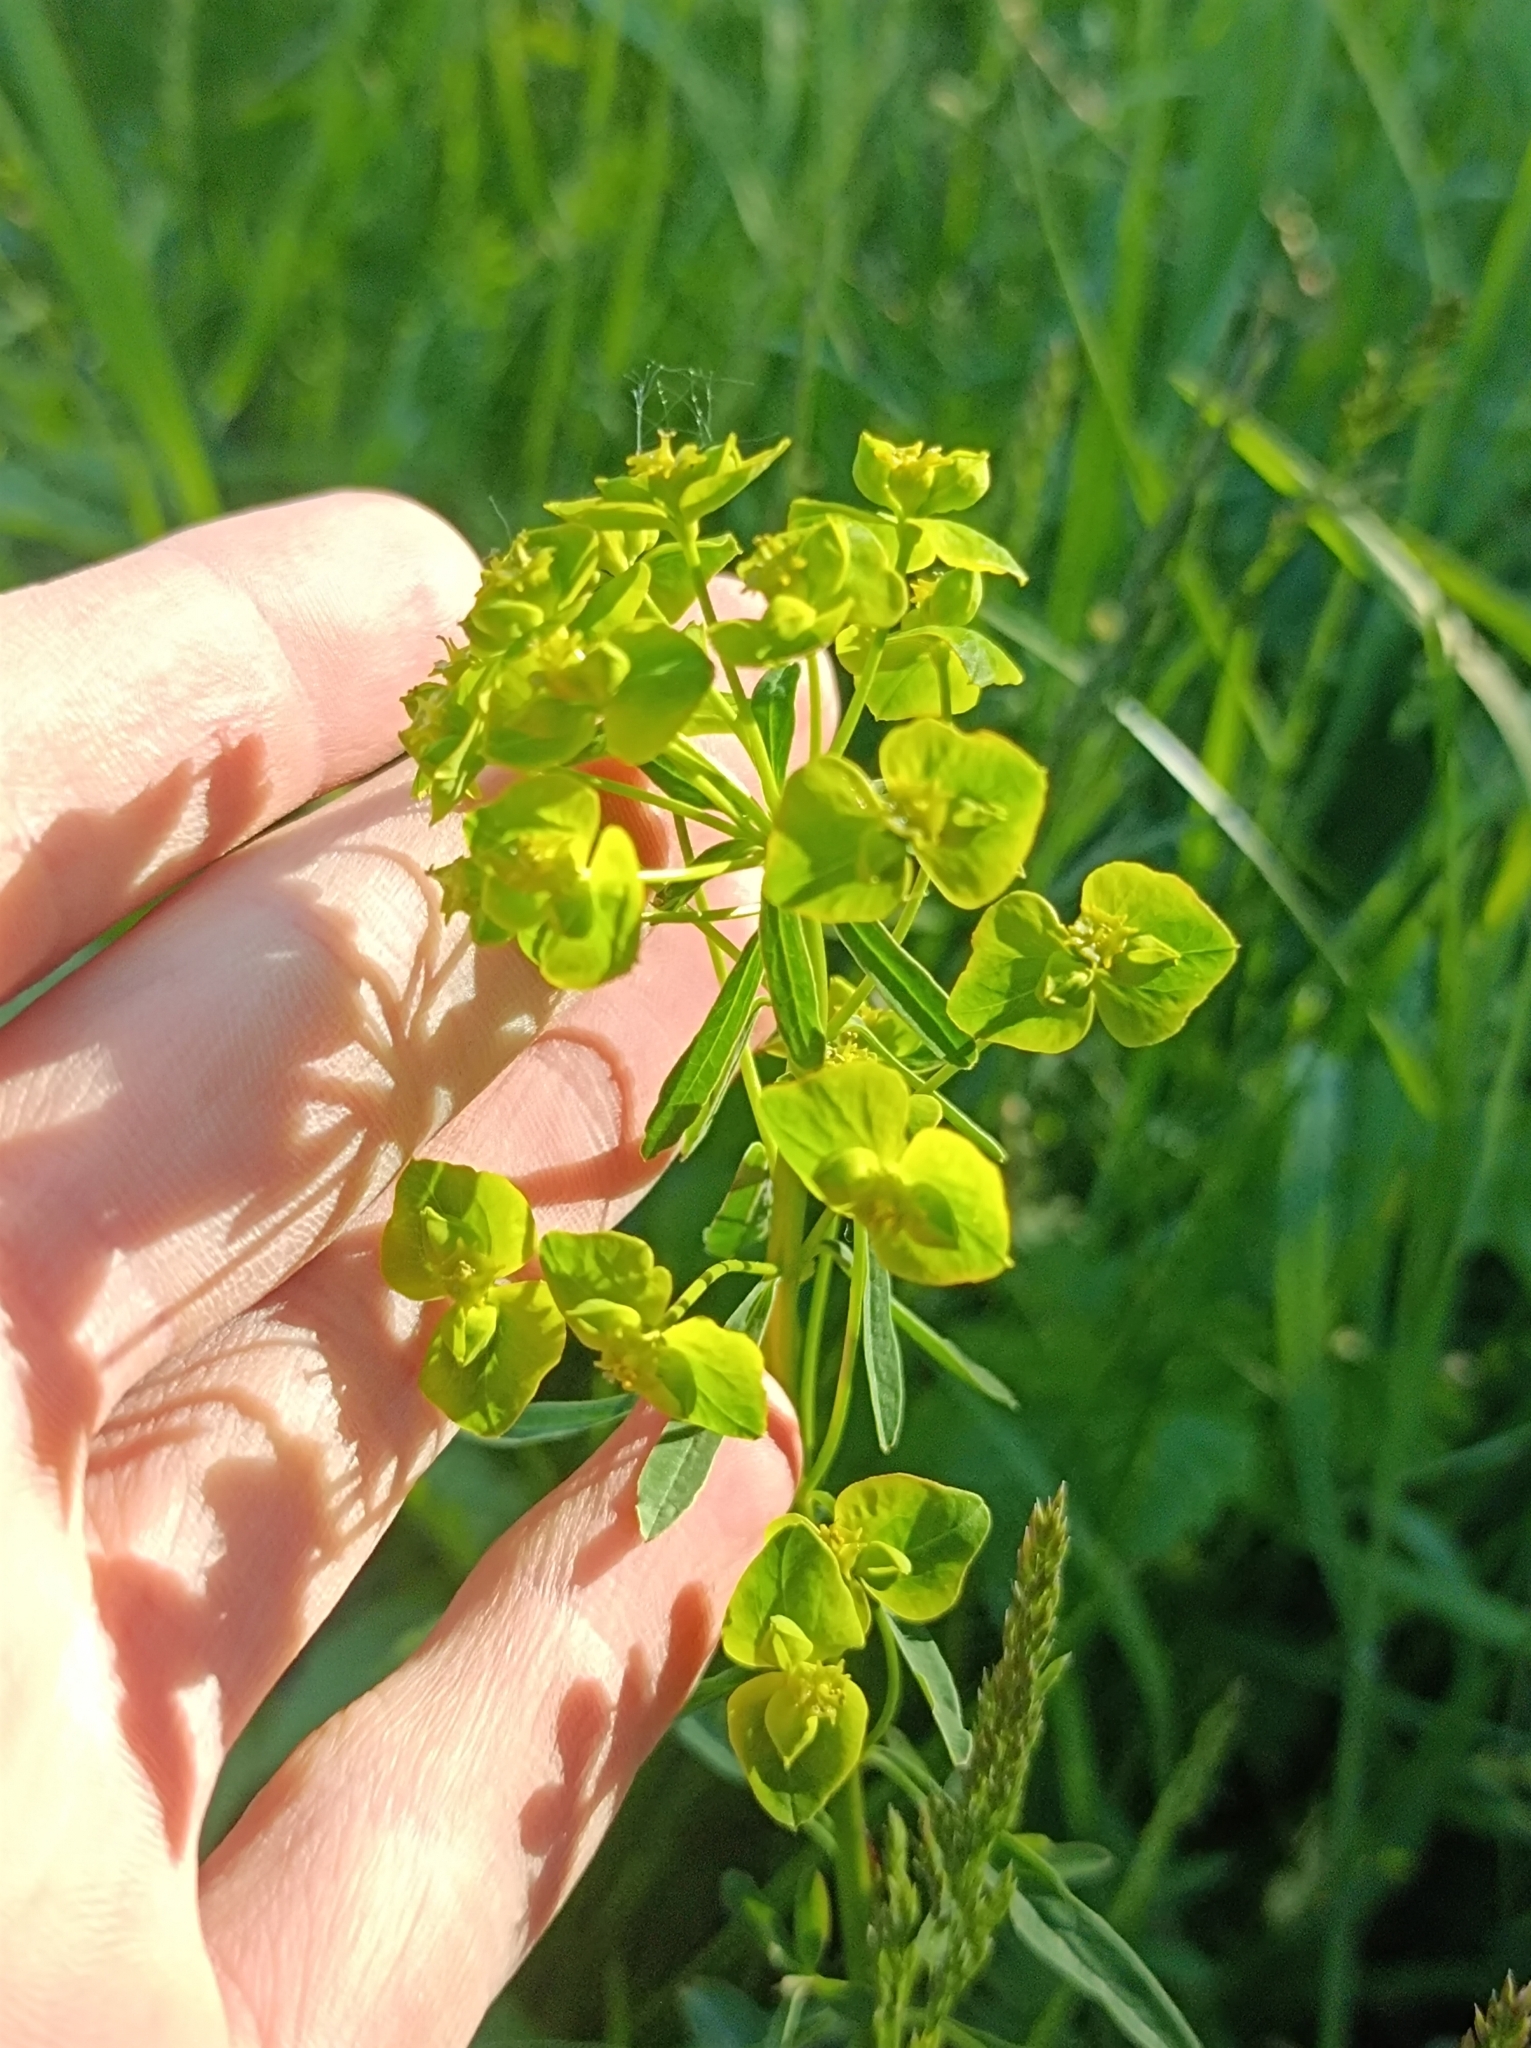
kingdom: Plantae
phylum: Tracheophyta
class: Magnoliopsida
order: Malpighiales
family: Euphorbiaceae
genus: Euphorbia
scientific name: Euphorbia esula
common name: Leafy spurge
